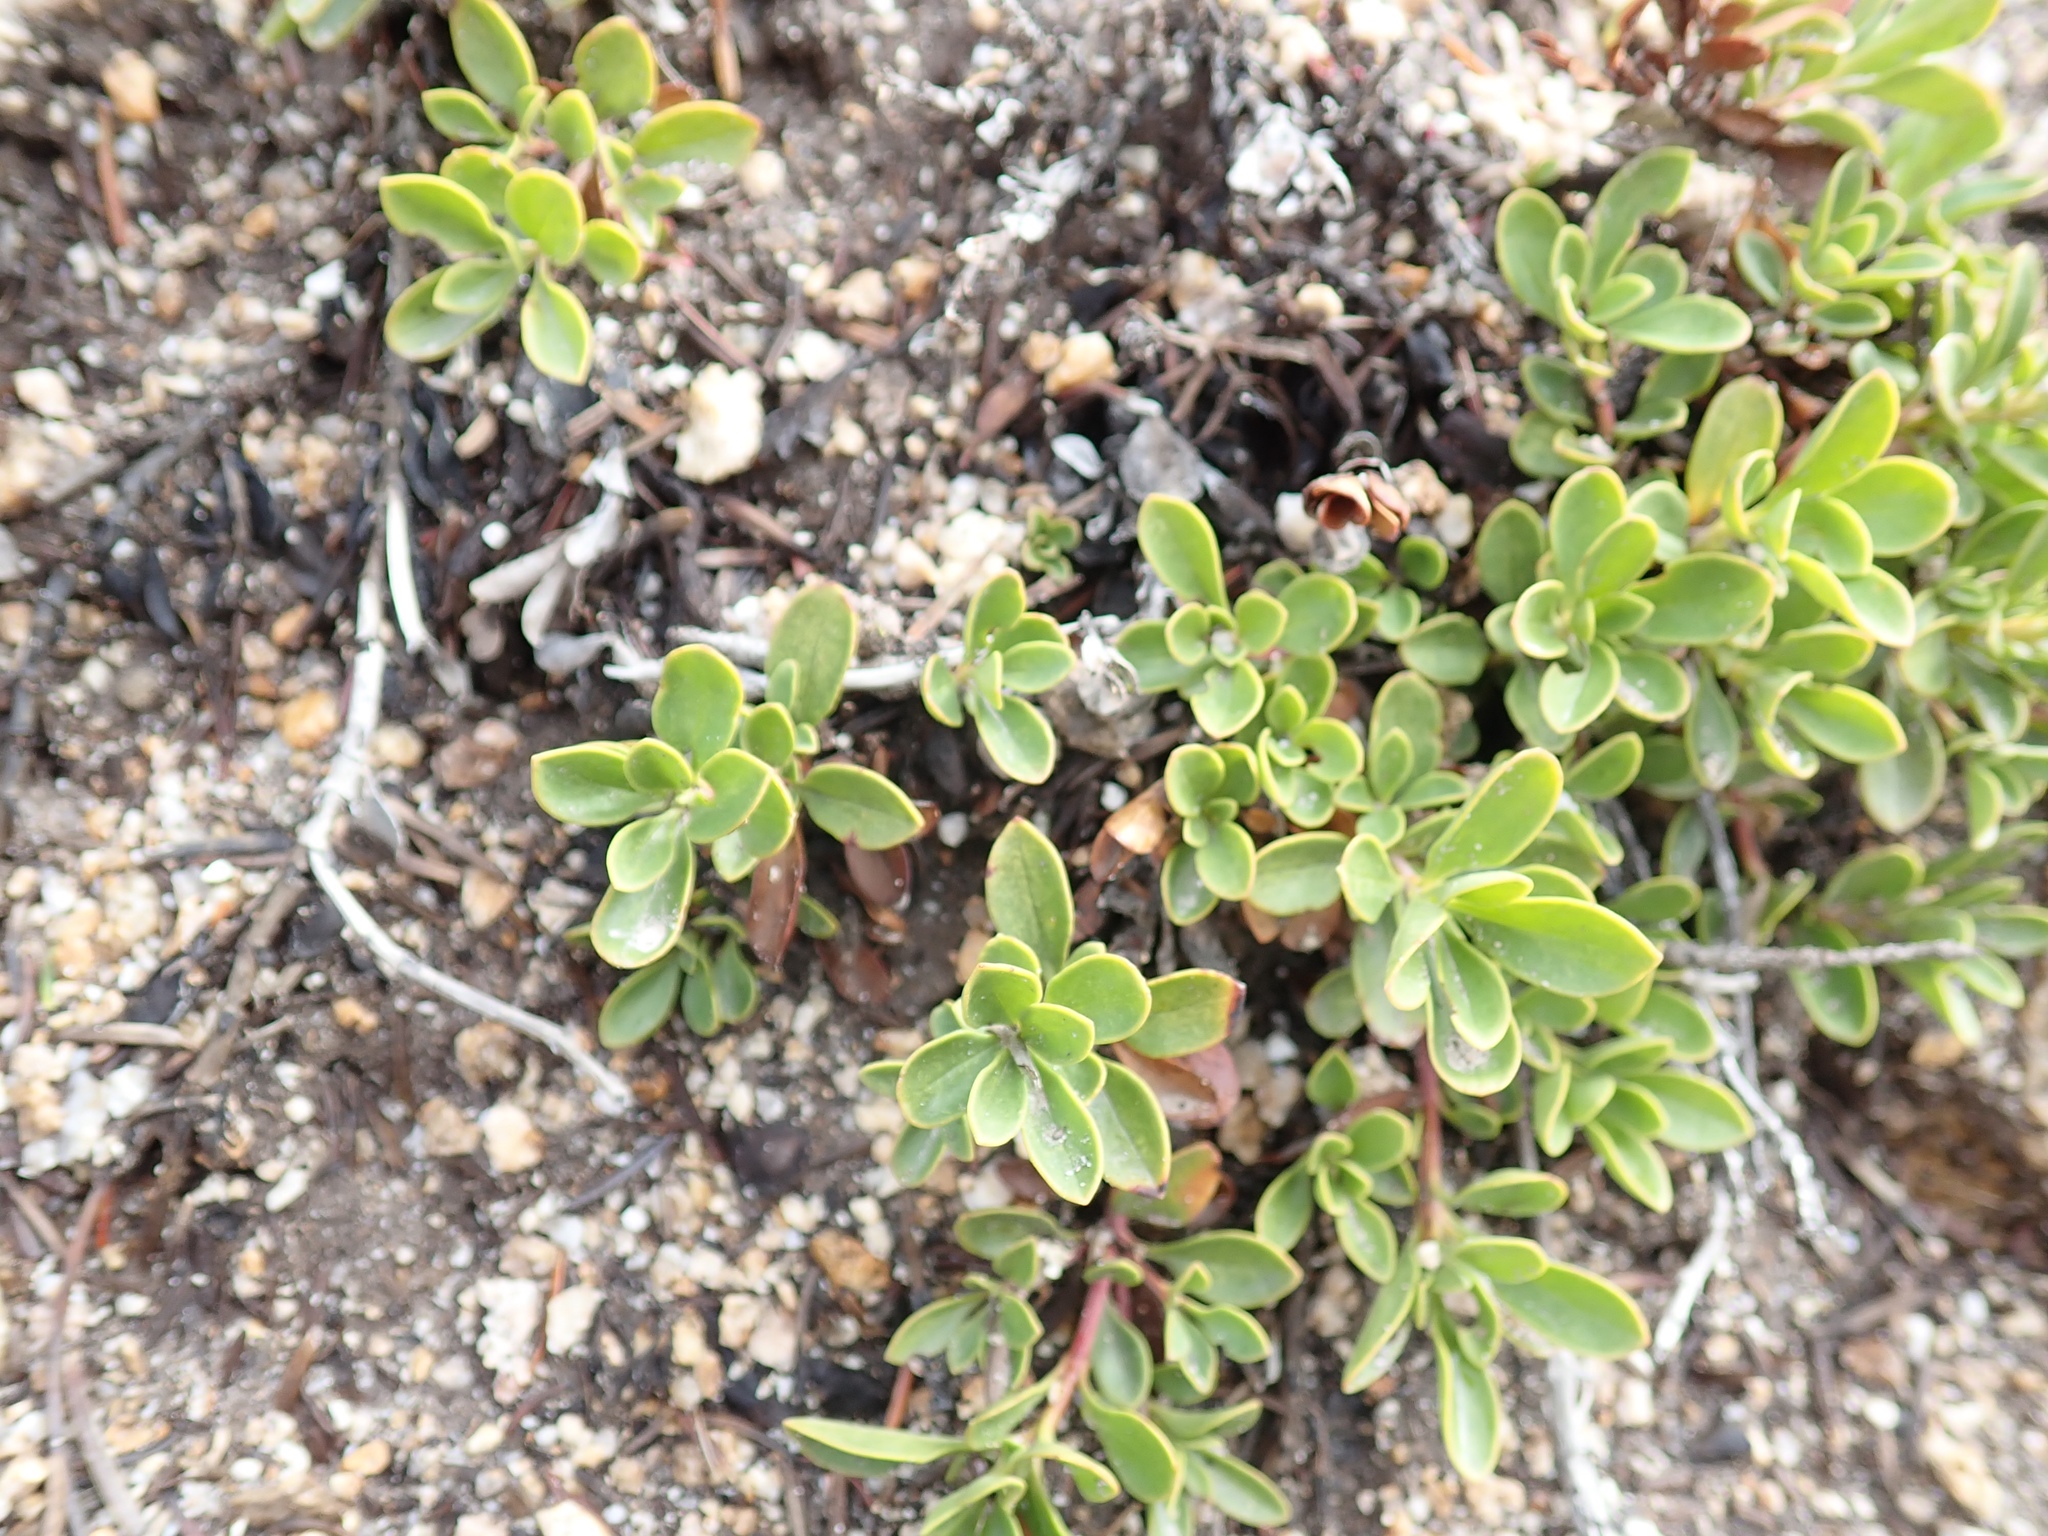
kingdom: Plantae
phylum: Tracheophyta
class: Magnoliopsida
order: Lamiales
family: Plantaginaceae
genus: Penstemon
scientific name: Penstemon davidsonii
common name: Davidson's penstemon
